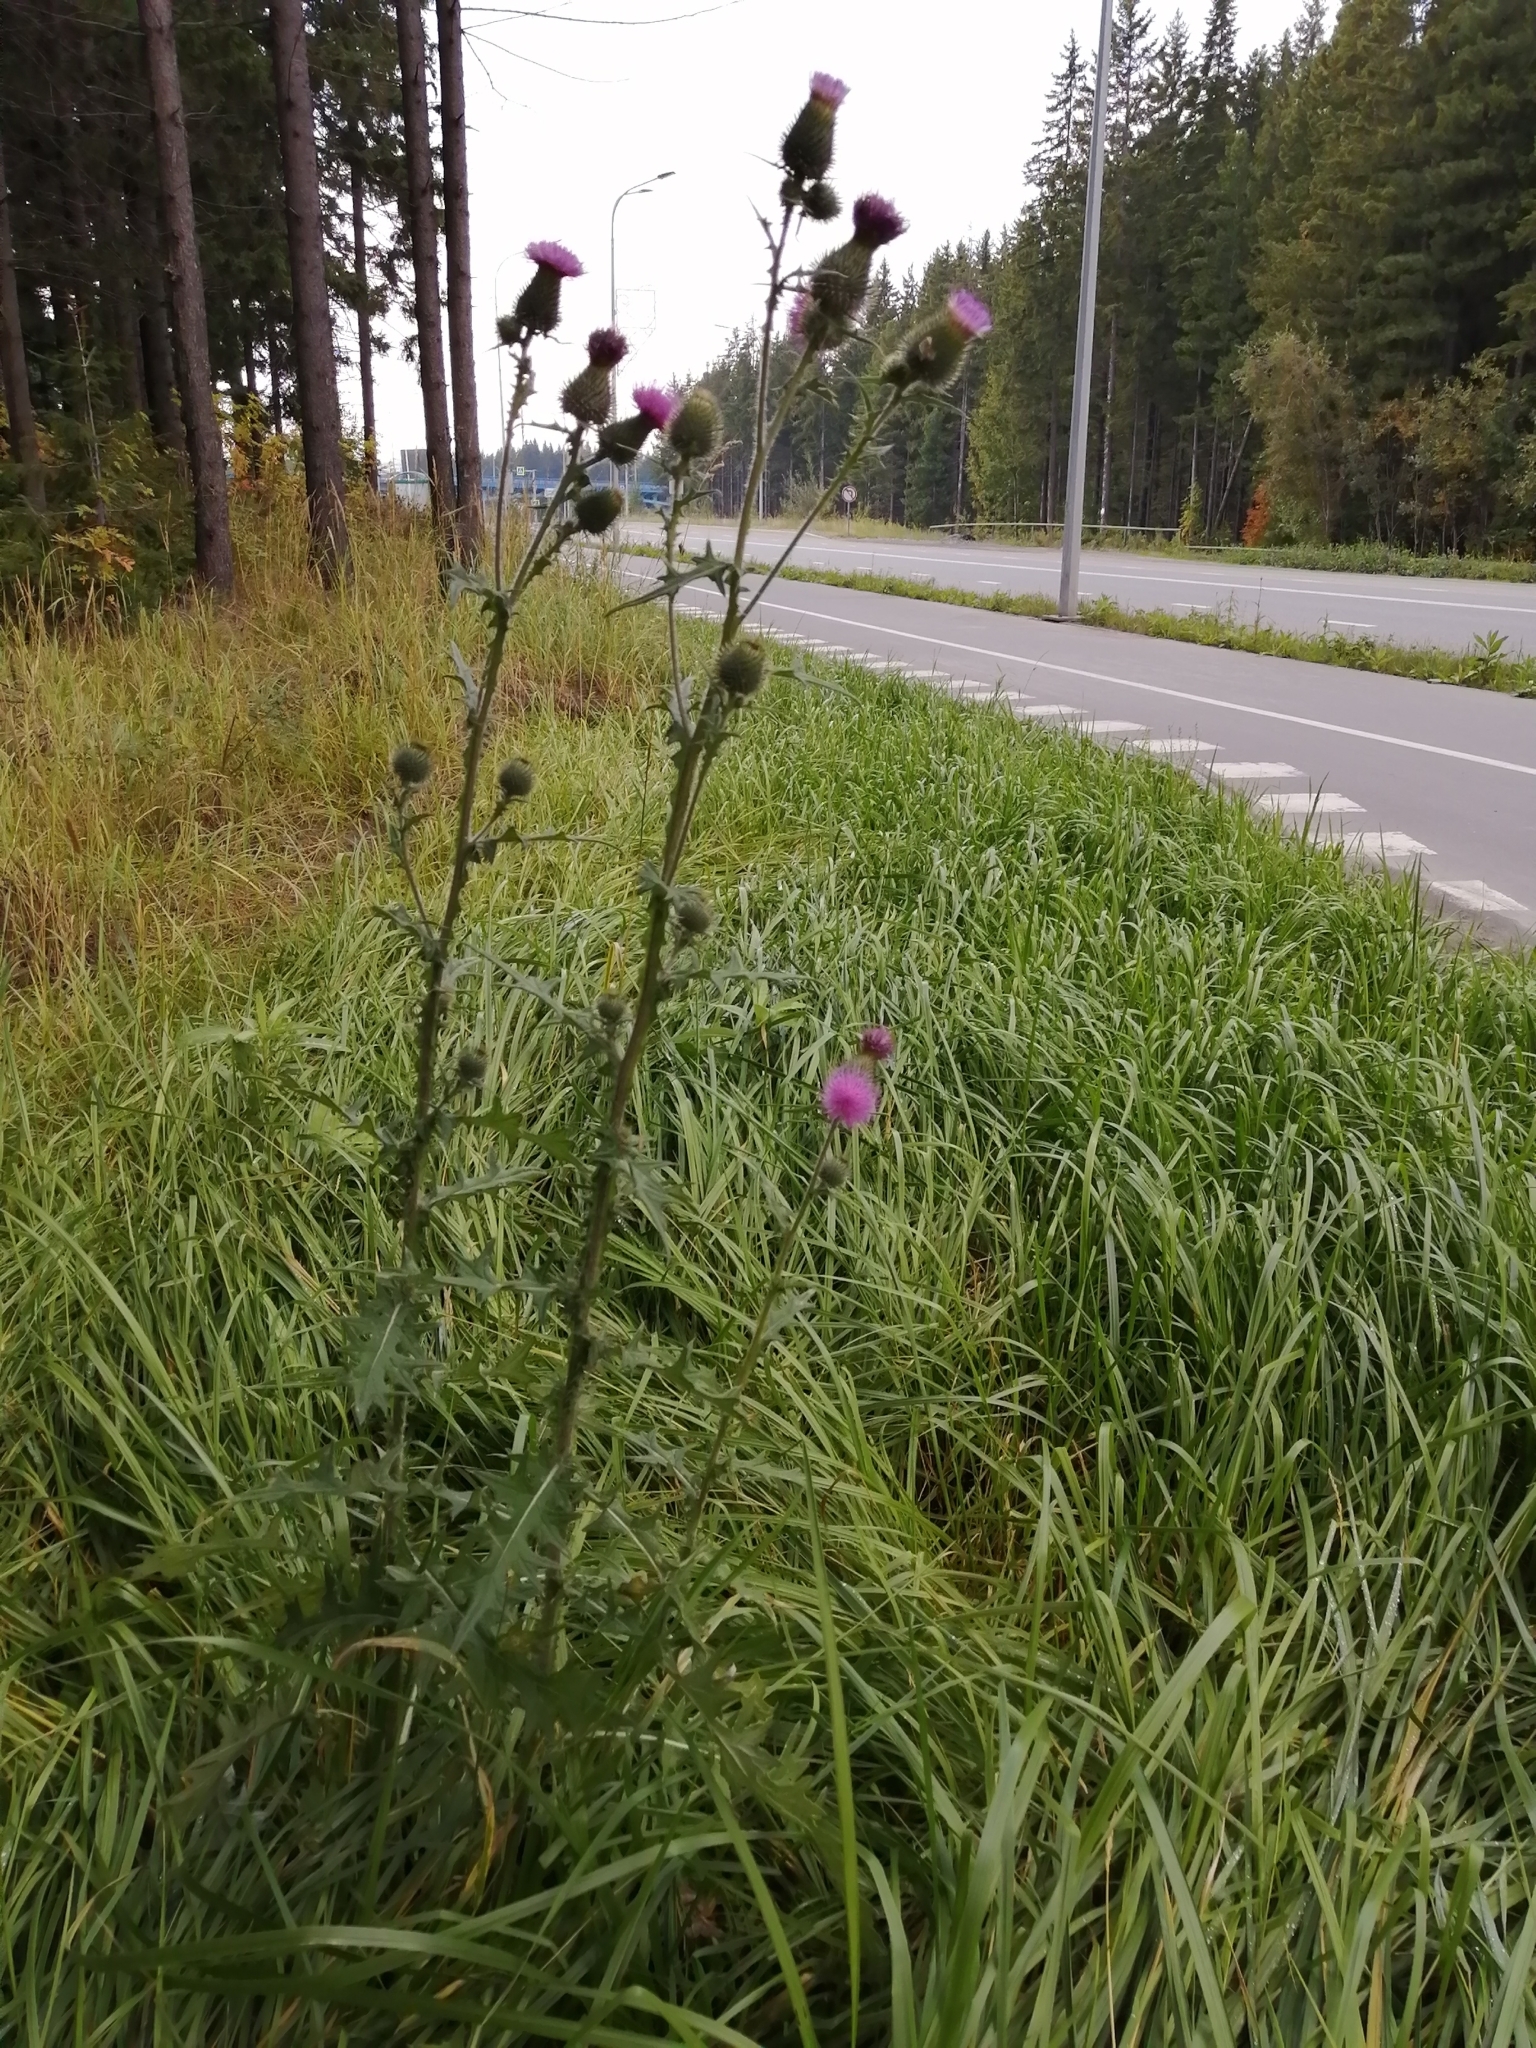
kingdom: Plantae
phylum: Tracheophyta
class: Magnoliopsida
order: Asterales
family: Asteraceae
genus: Cirsium
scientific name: Cirsium vulgare
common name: Bull thistle
